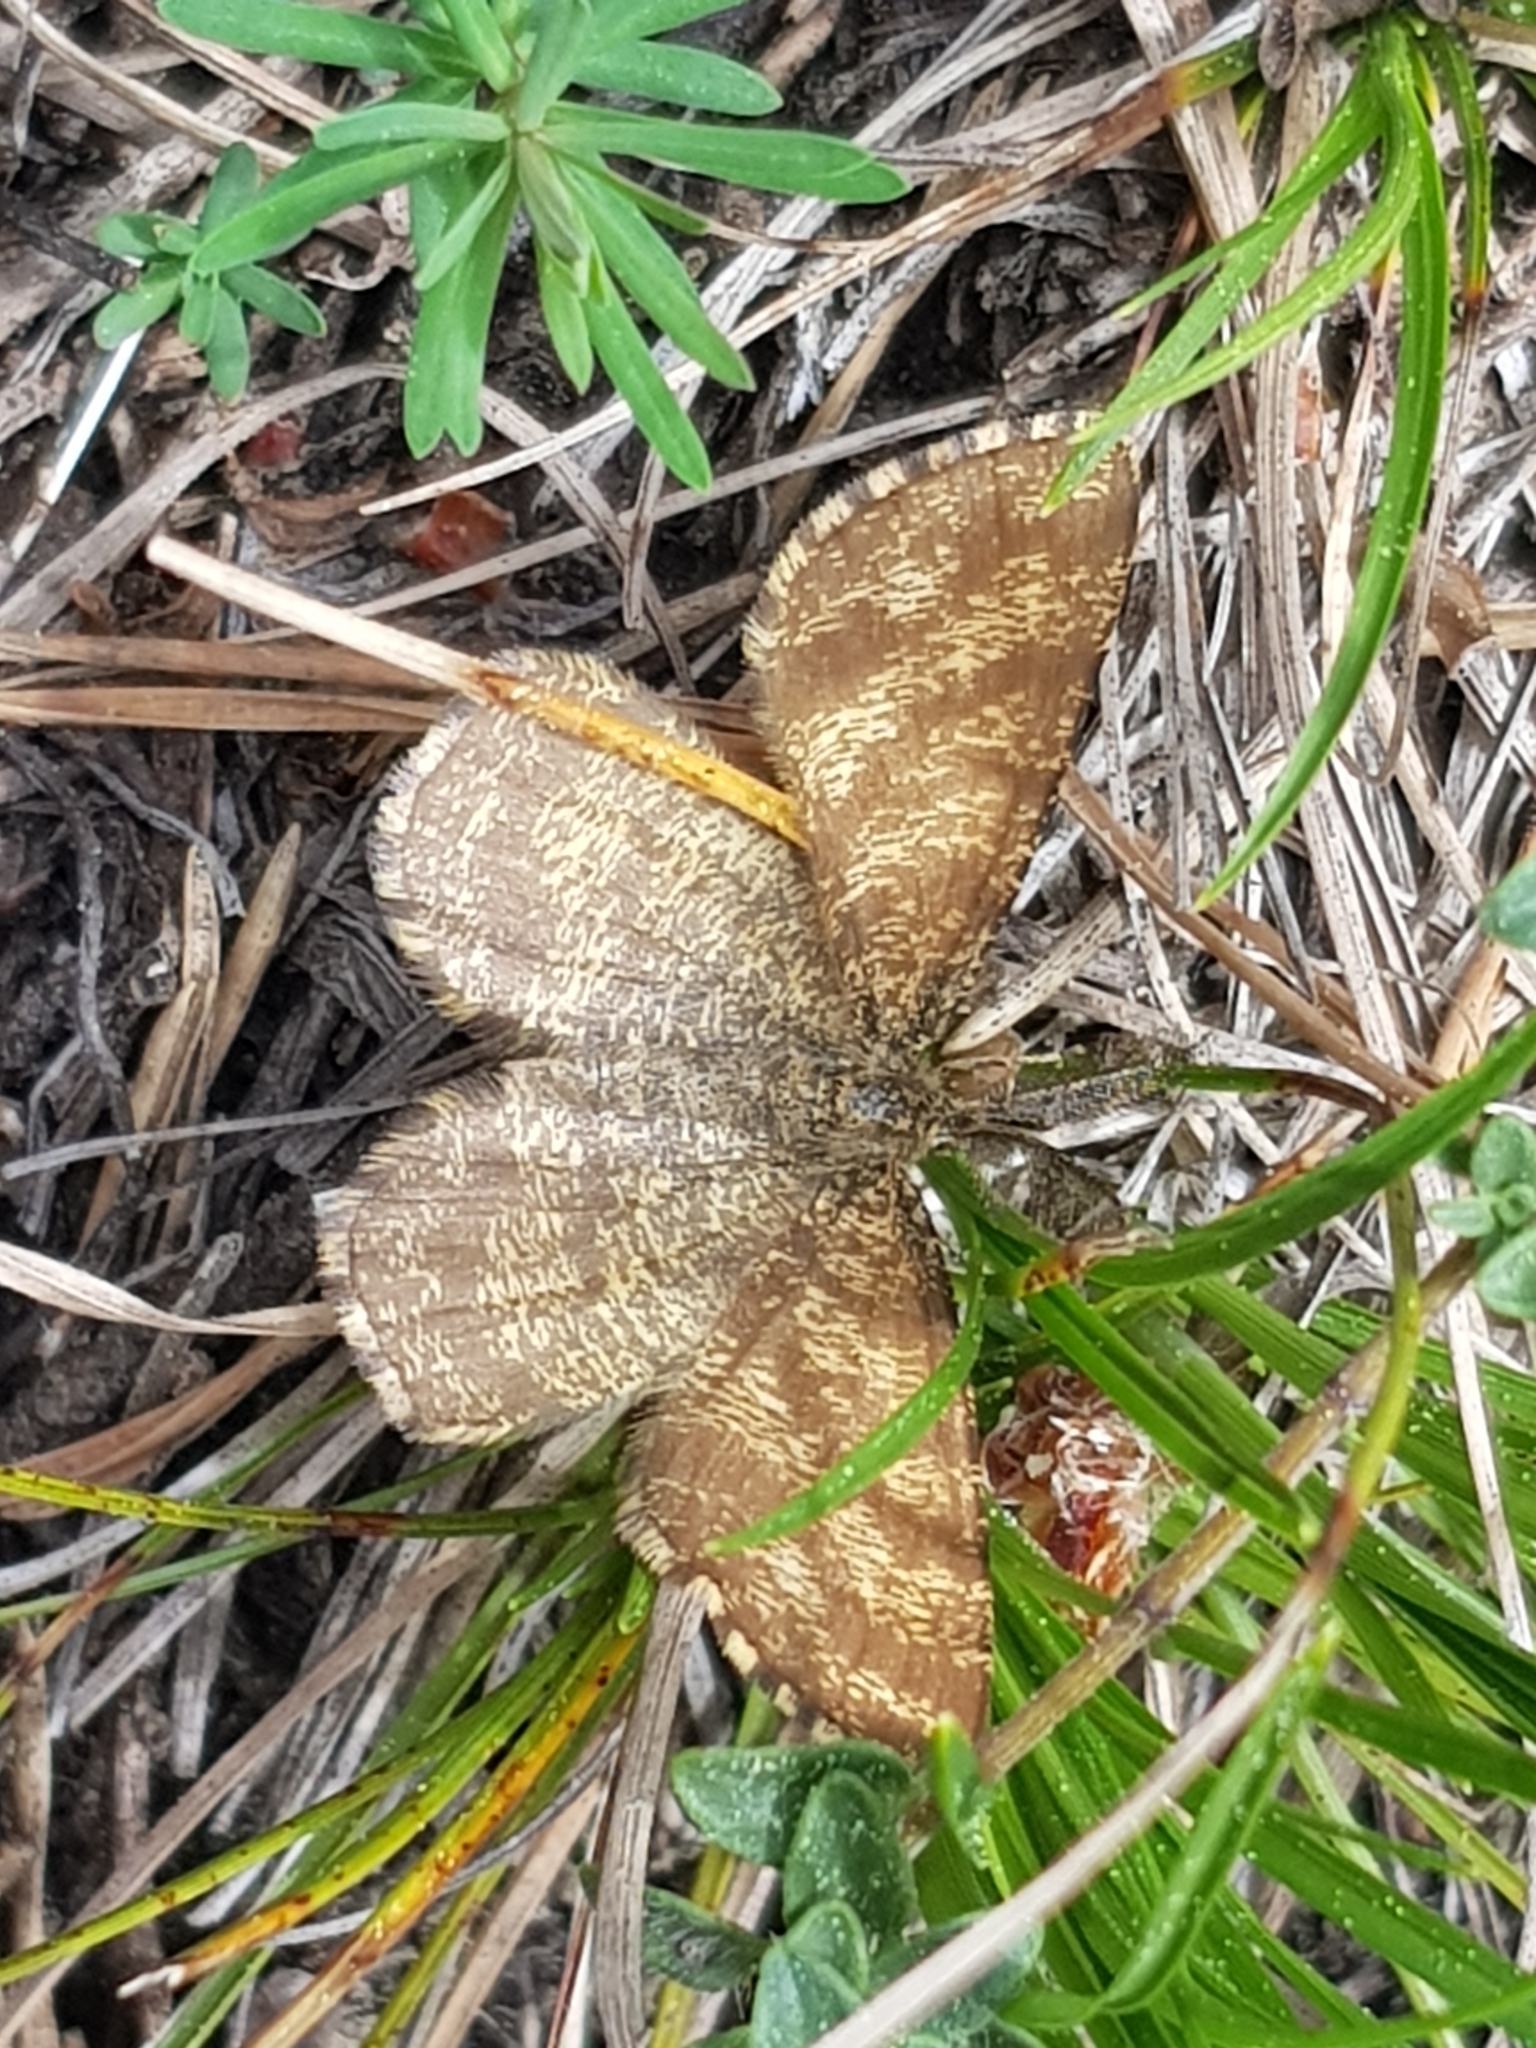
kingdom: Animalia
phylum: Arthropoda
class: Insecta
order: Lepidoptera
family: Geometridae
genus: Ematurga
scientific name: Ematurga atomaria
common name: Common heath
